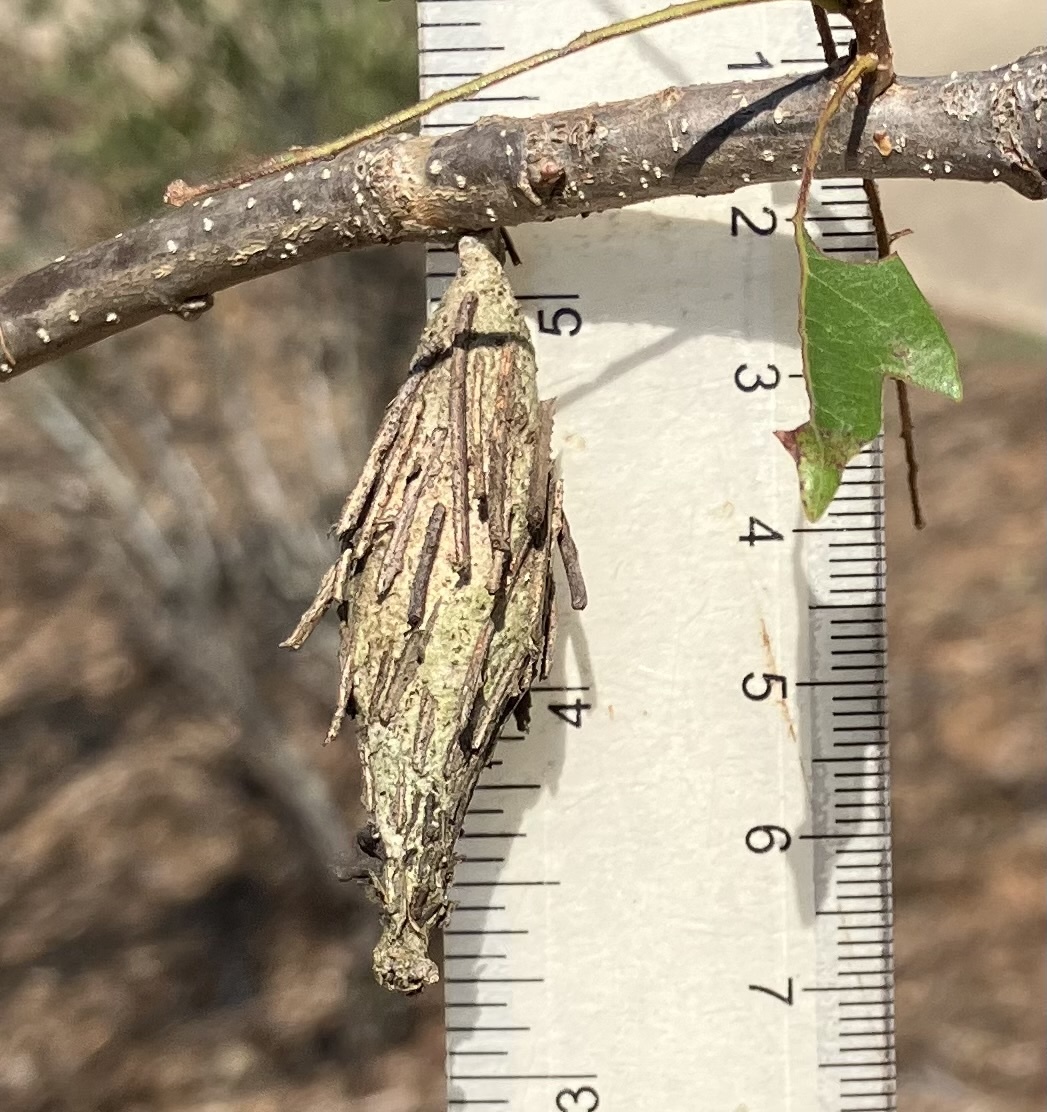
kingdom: Animalia
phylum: Arthropoda
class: Insecta
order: Lepidoptera
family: Psychidae
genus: Thyridopteryx
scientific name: Thyridopteryx ephemeraeformis
